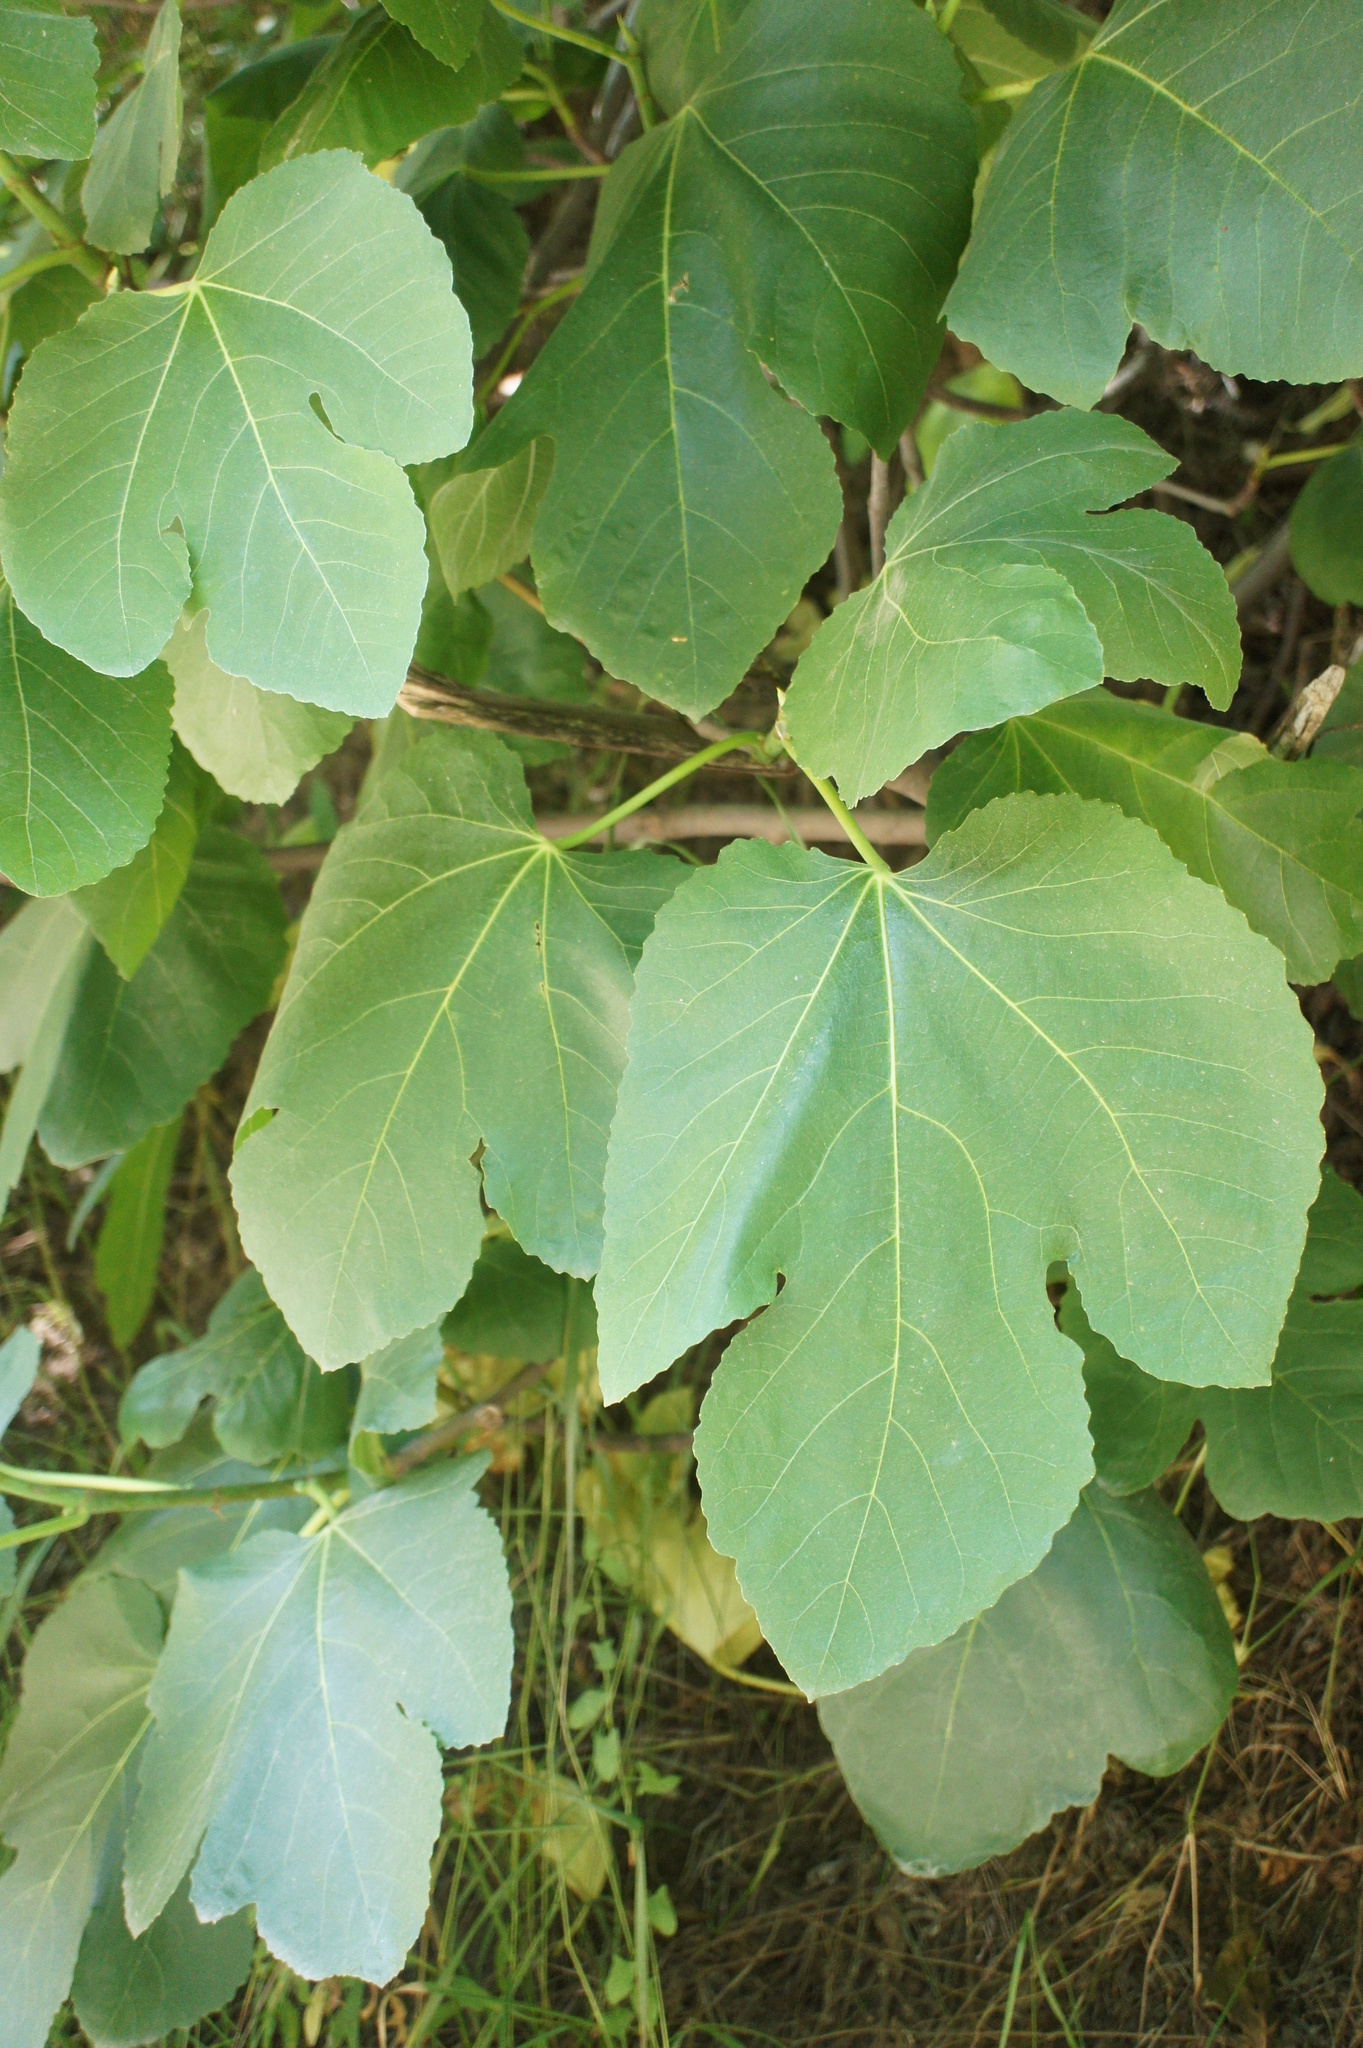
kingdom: Plantae
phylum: Tracheophyta
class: Magnoliopsida
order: Rosales
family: Moraceae
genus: Ficus
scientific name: Ficus carica
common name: Fig
